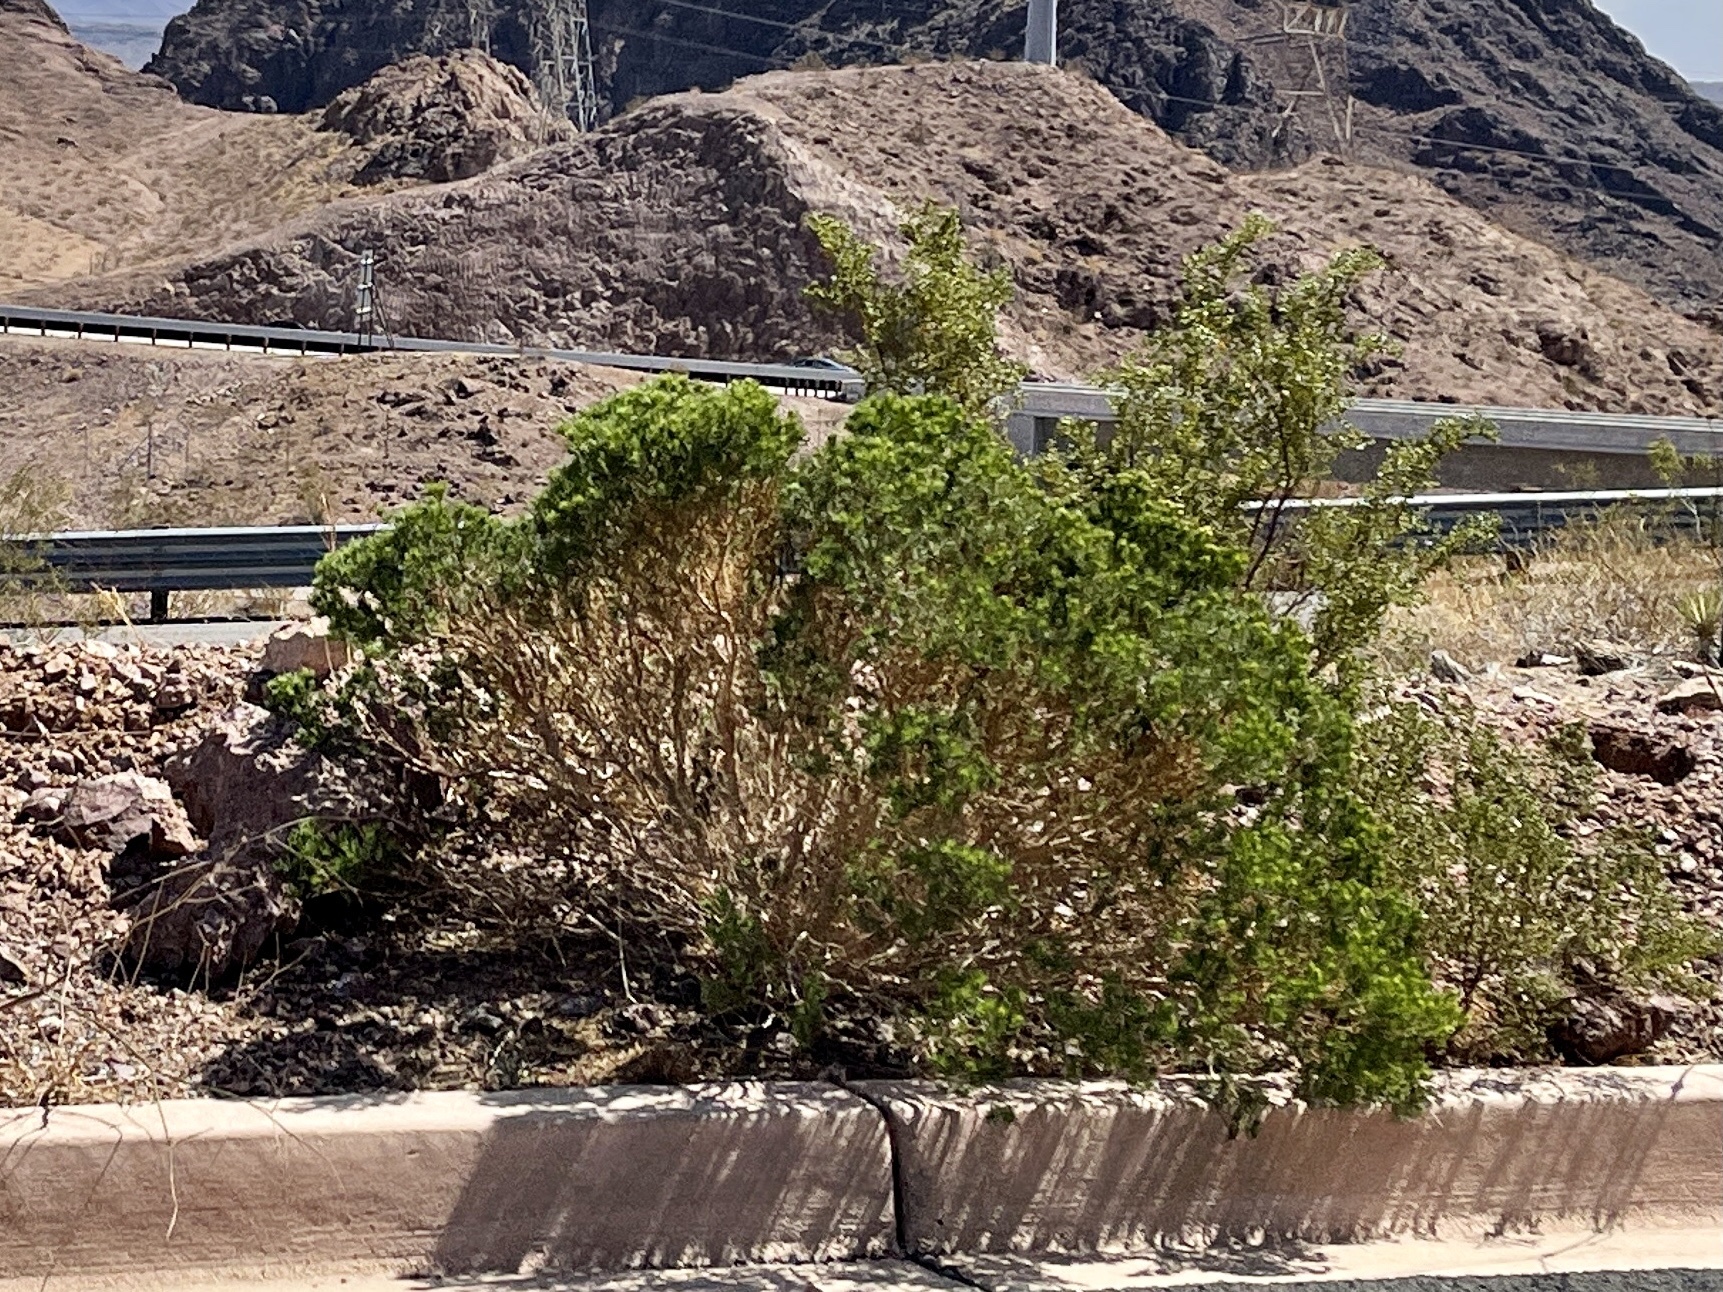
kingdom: Plantae
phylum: Tracheophyta
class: Magnoliopsida
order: Asterales
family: Asteraceae
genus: Peucephyllum
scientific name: Peucephyllum schottii
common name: Pygmy-cedar
